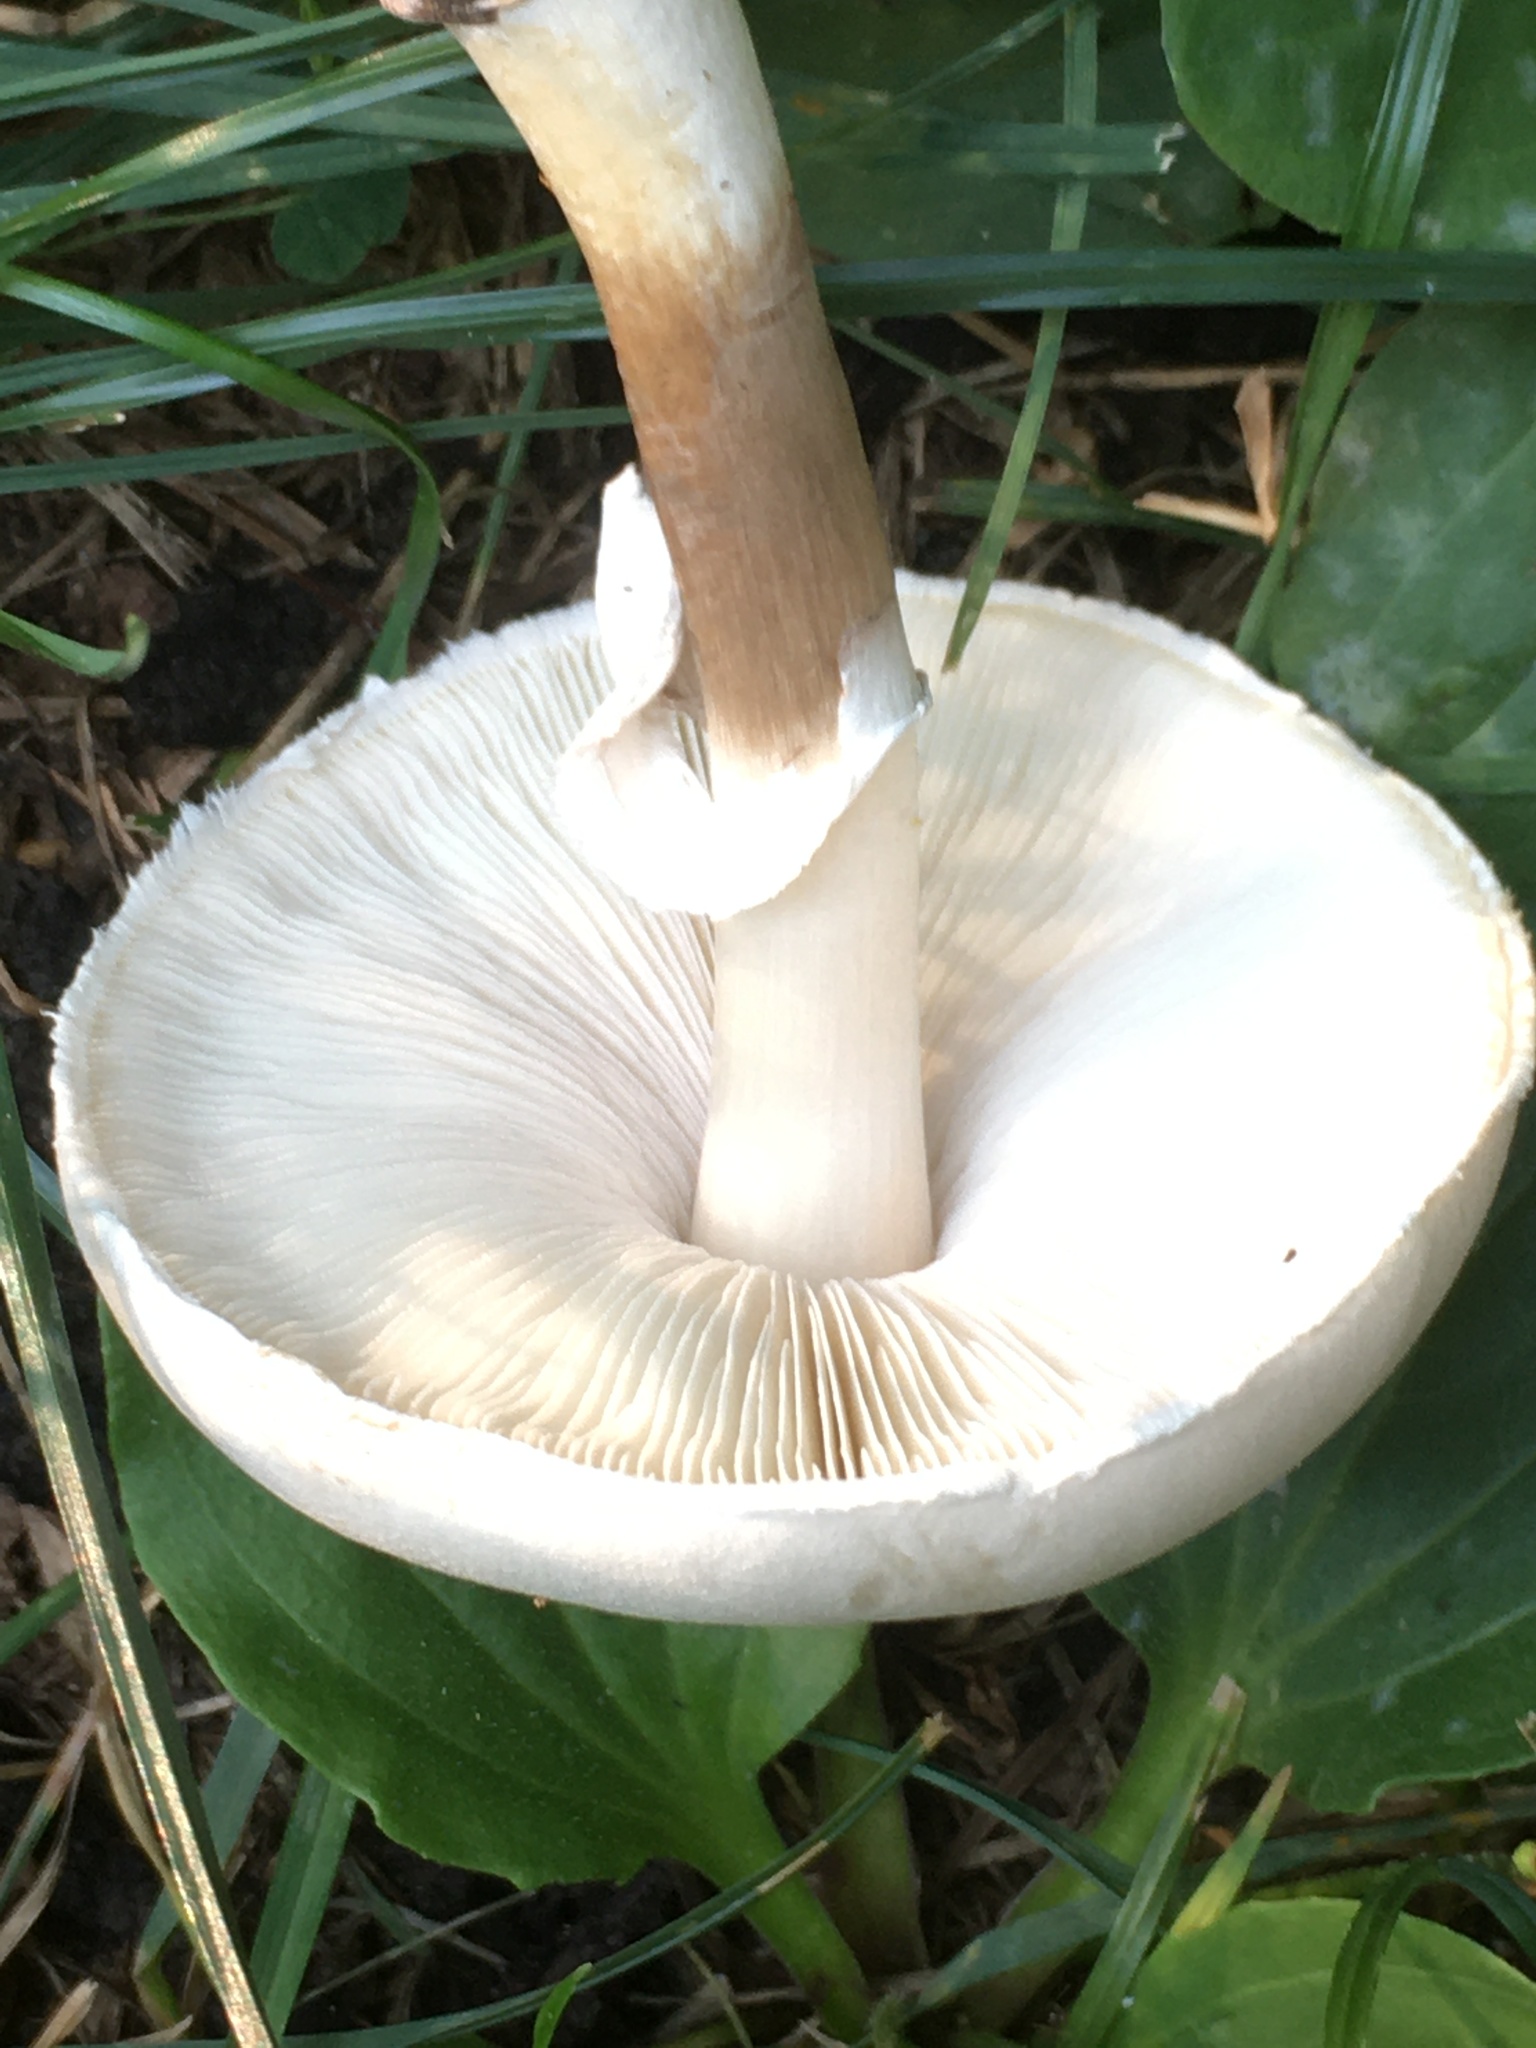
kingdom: Fungi
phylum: Basidiomycota
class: Agaricomycetes
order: Agaricales
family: Agaricaceae
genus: Leucoagaricus
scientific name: Leucoagaricus leucothites
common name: White dapperling
